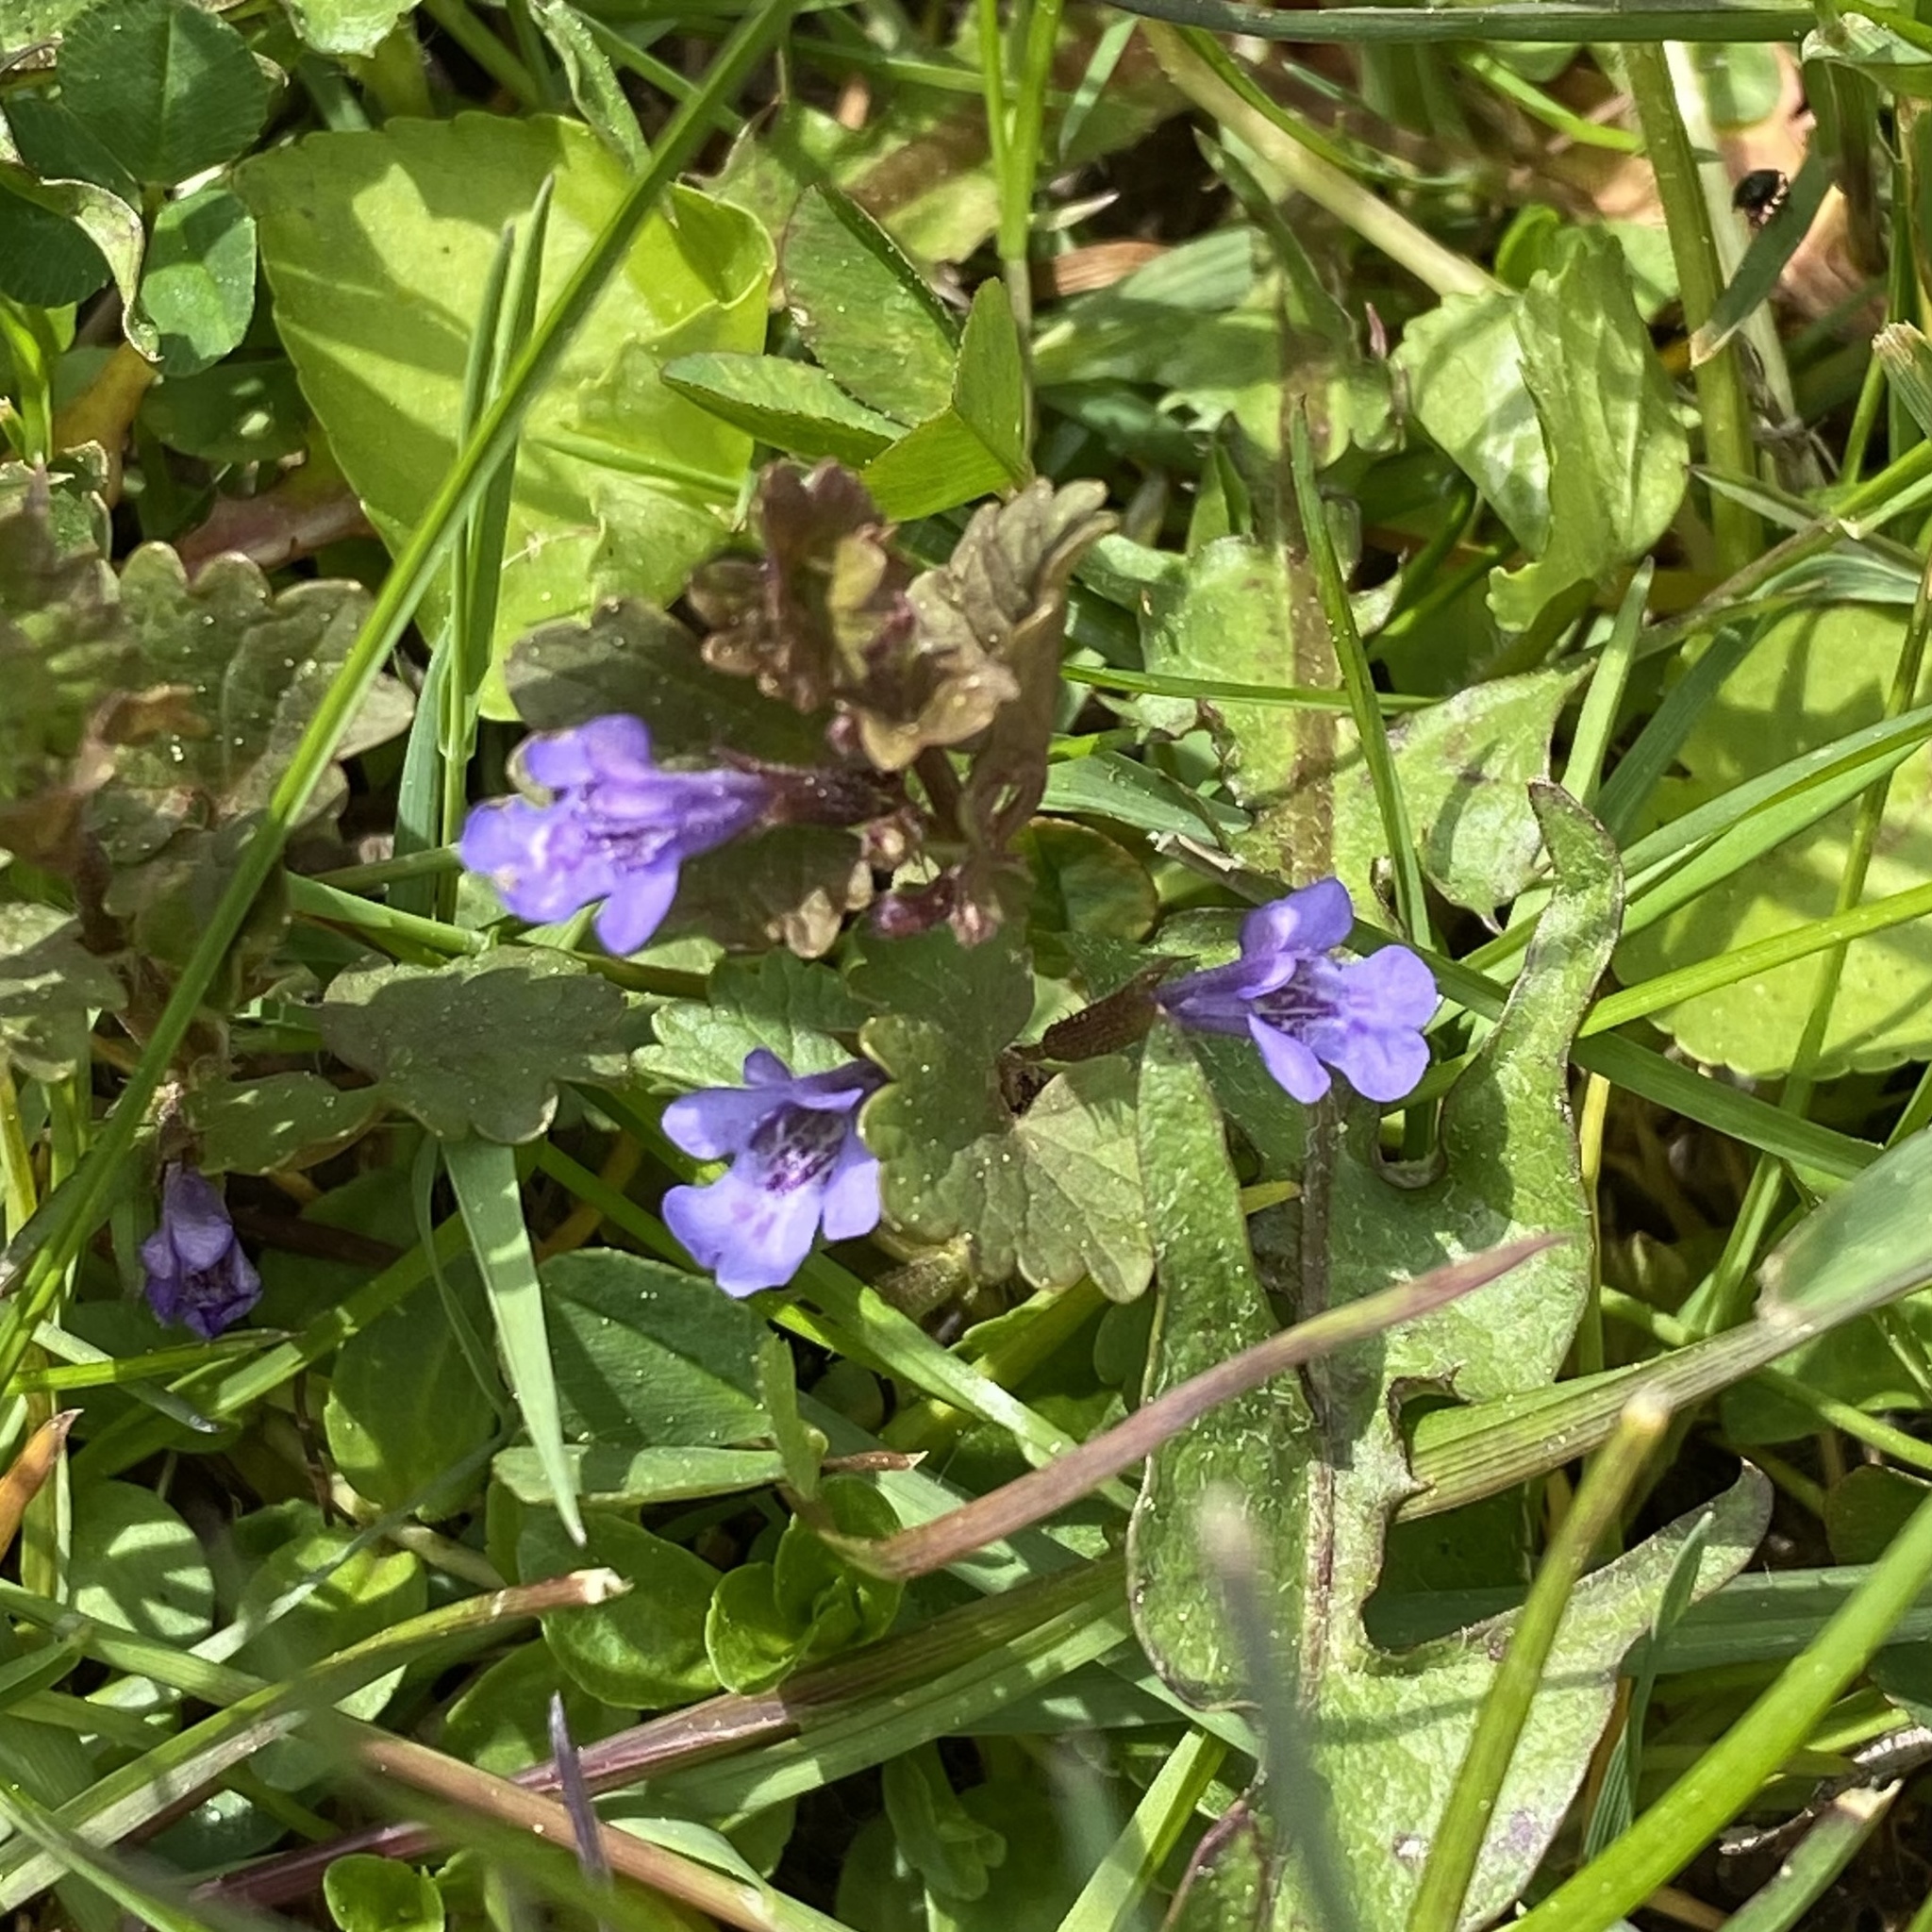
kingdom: Plantae
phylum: Tracheophyta
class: Magnoliopsida
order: Lamiales
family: Lamiaceae
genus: Glechoma
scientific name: Glechoma hederacea
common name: Ground ivy
